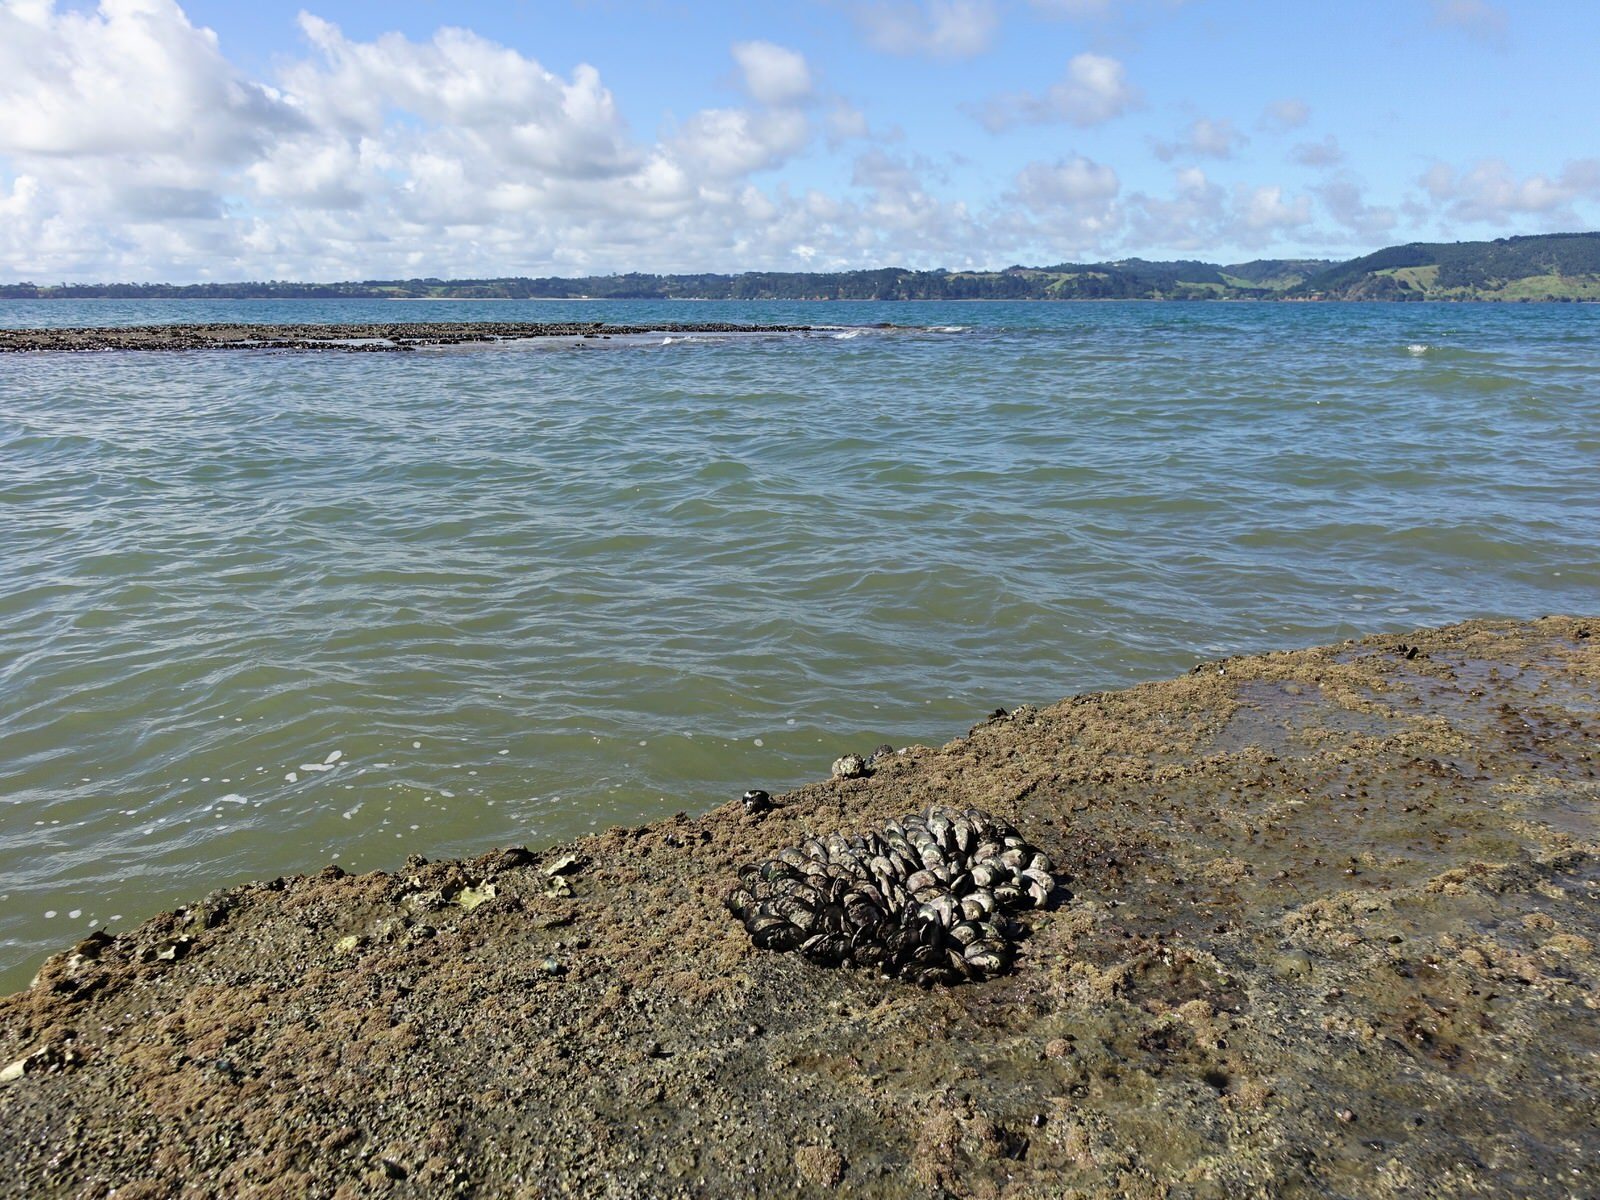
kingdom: Animalia
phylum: Mollusca
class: Bivalvia
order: Mytilida
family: Mytilidae
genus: Perna
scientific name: Perna canaliculus
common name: New zealand greenshelltm
